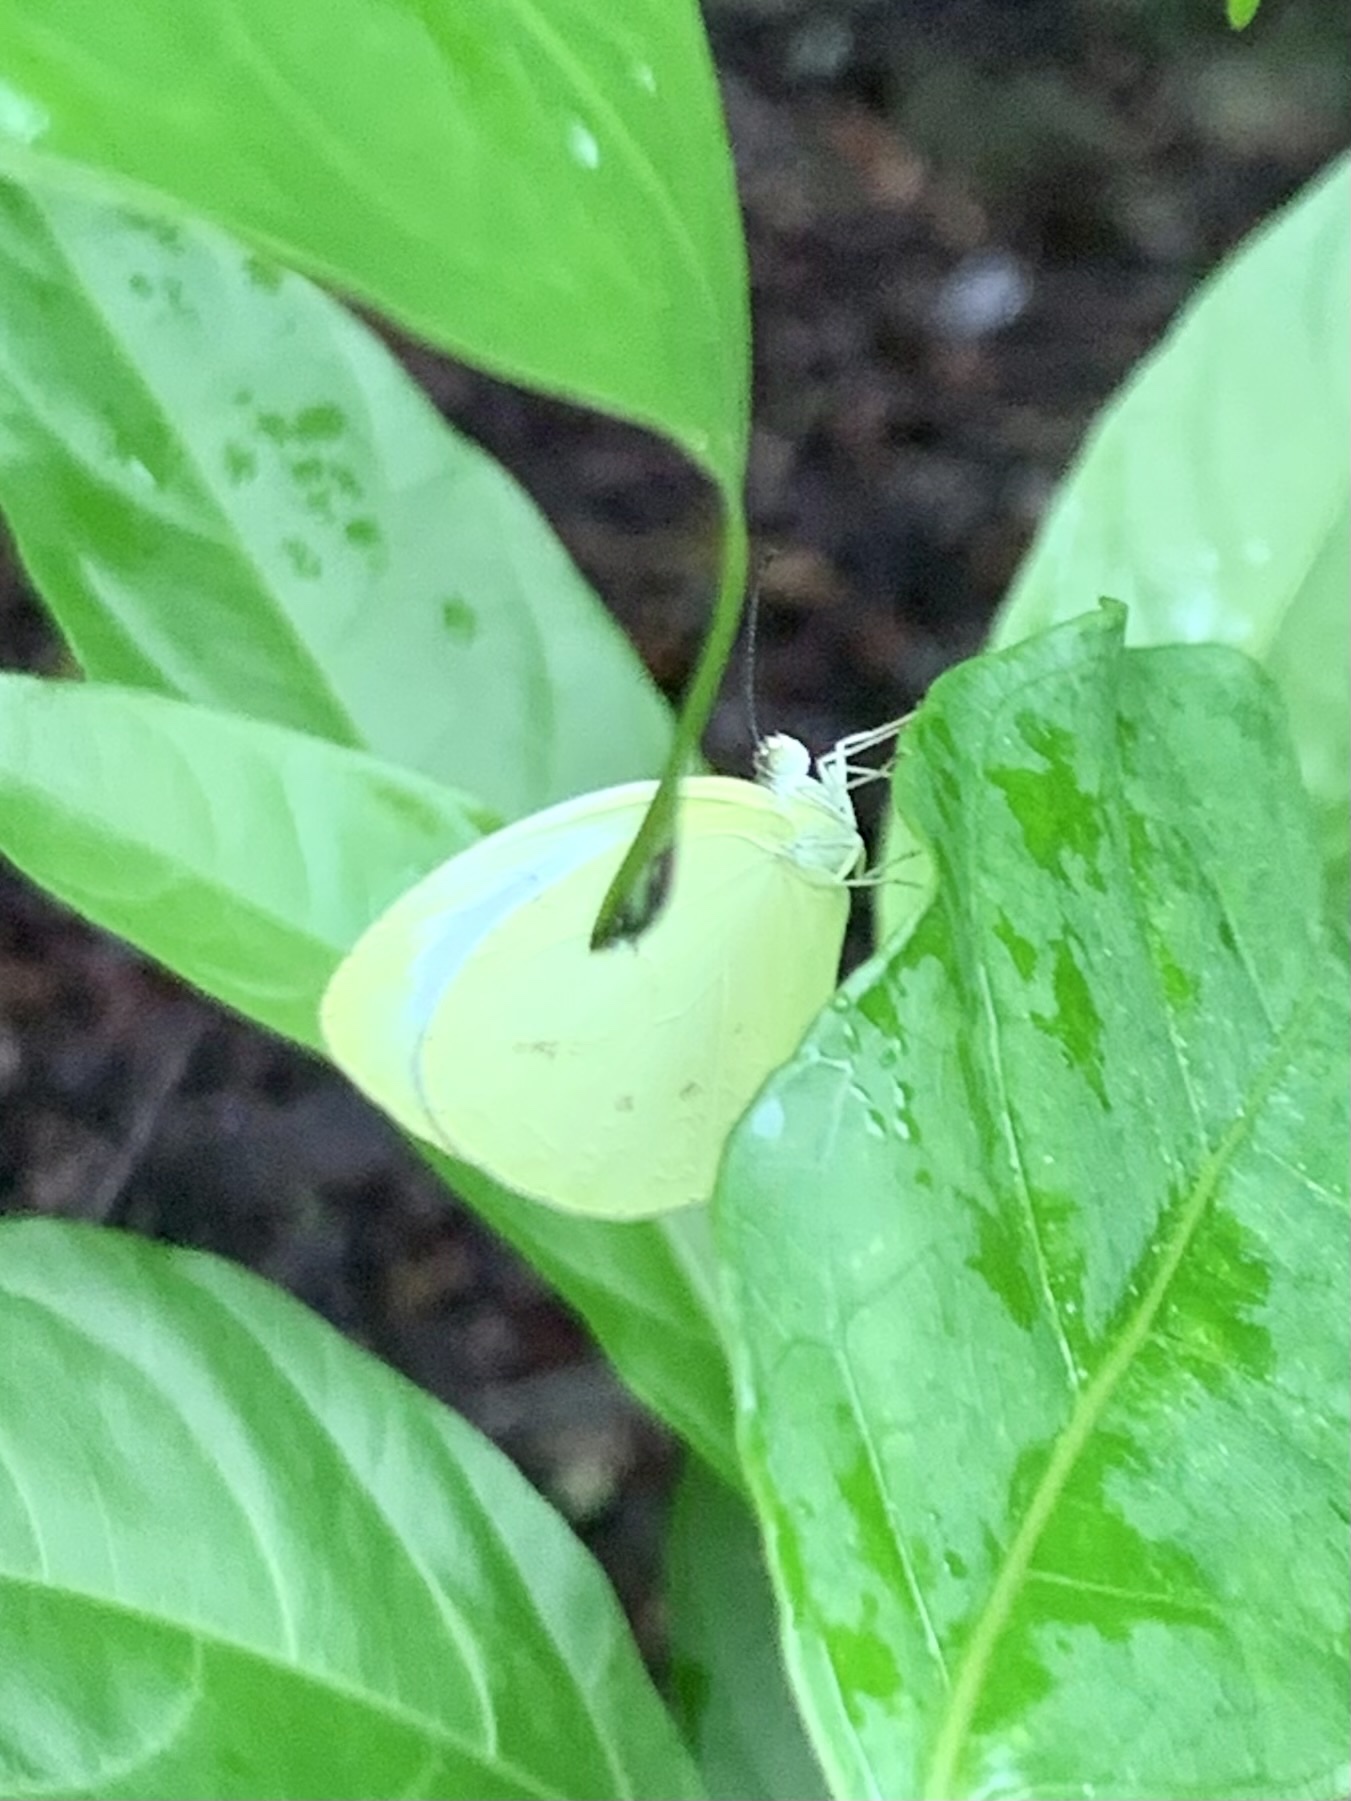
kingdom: Animalia
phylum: Arthropoda
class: Insecta
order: Lepidoptera
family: Pieridae
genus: Abaeis
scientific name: Abaeis albula
